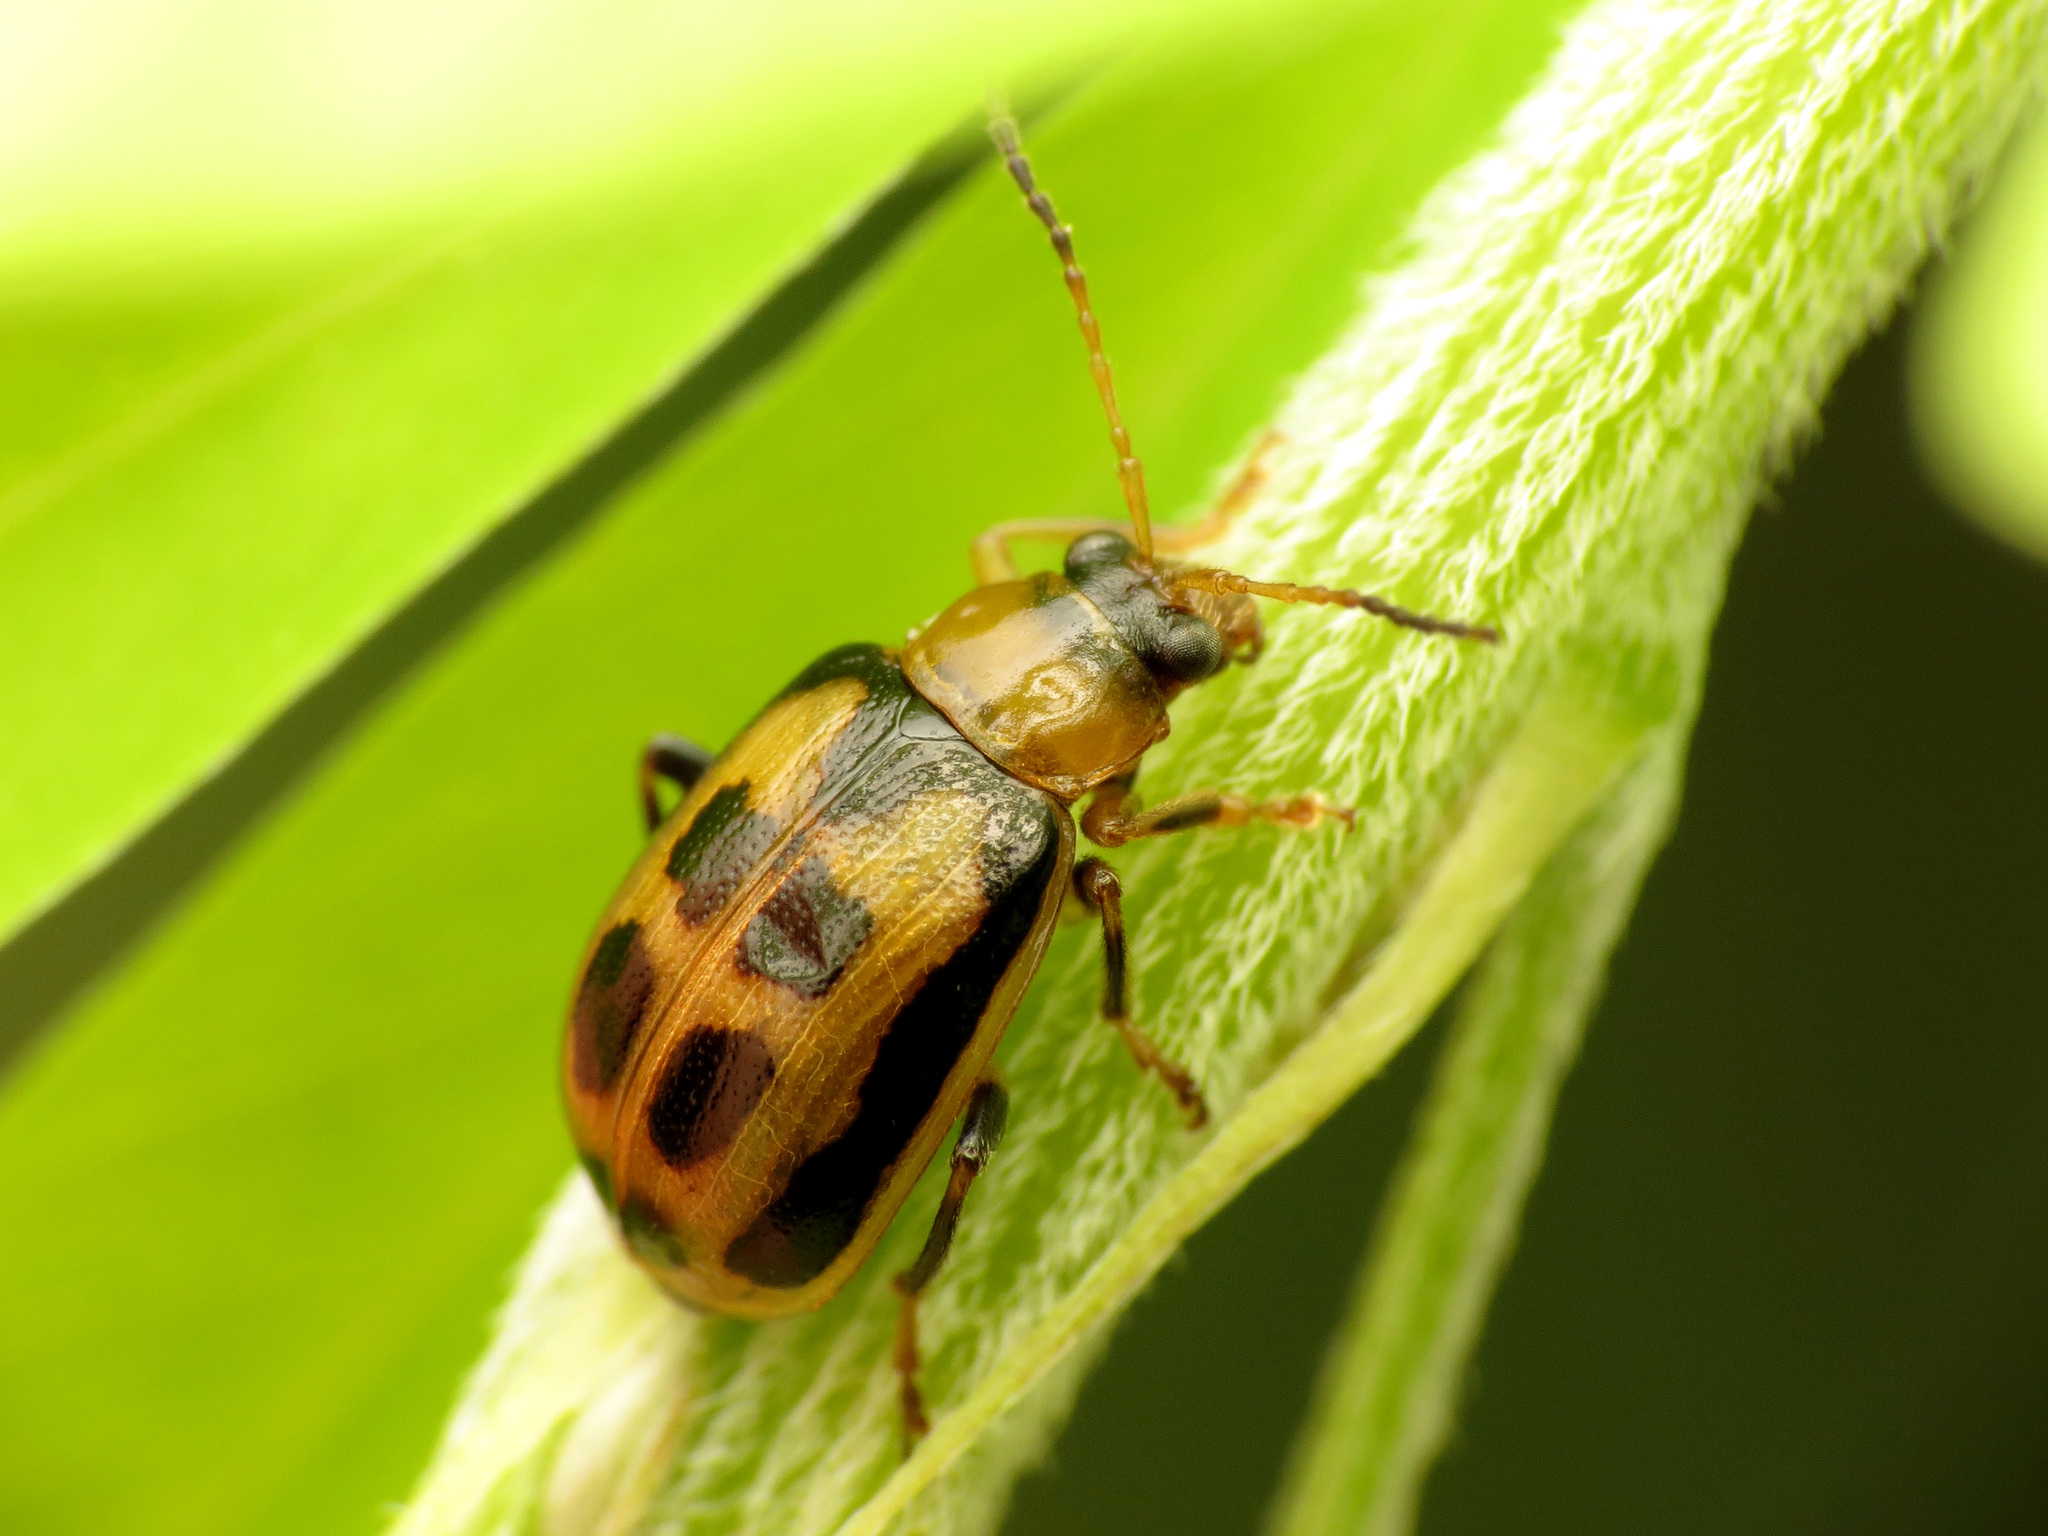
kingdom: Animalia
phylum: Arthropoda
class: Insecta
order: Coleoptera
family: Chrysomelidae
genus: Cerotoma
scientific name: Cerotoma trifurcata
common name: Bean leaf beetle
